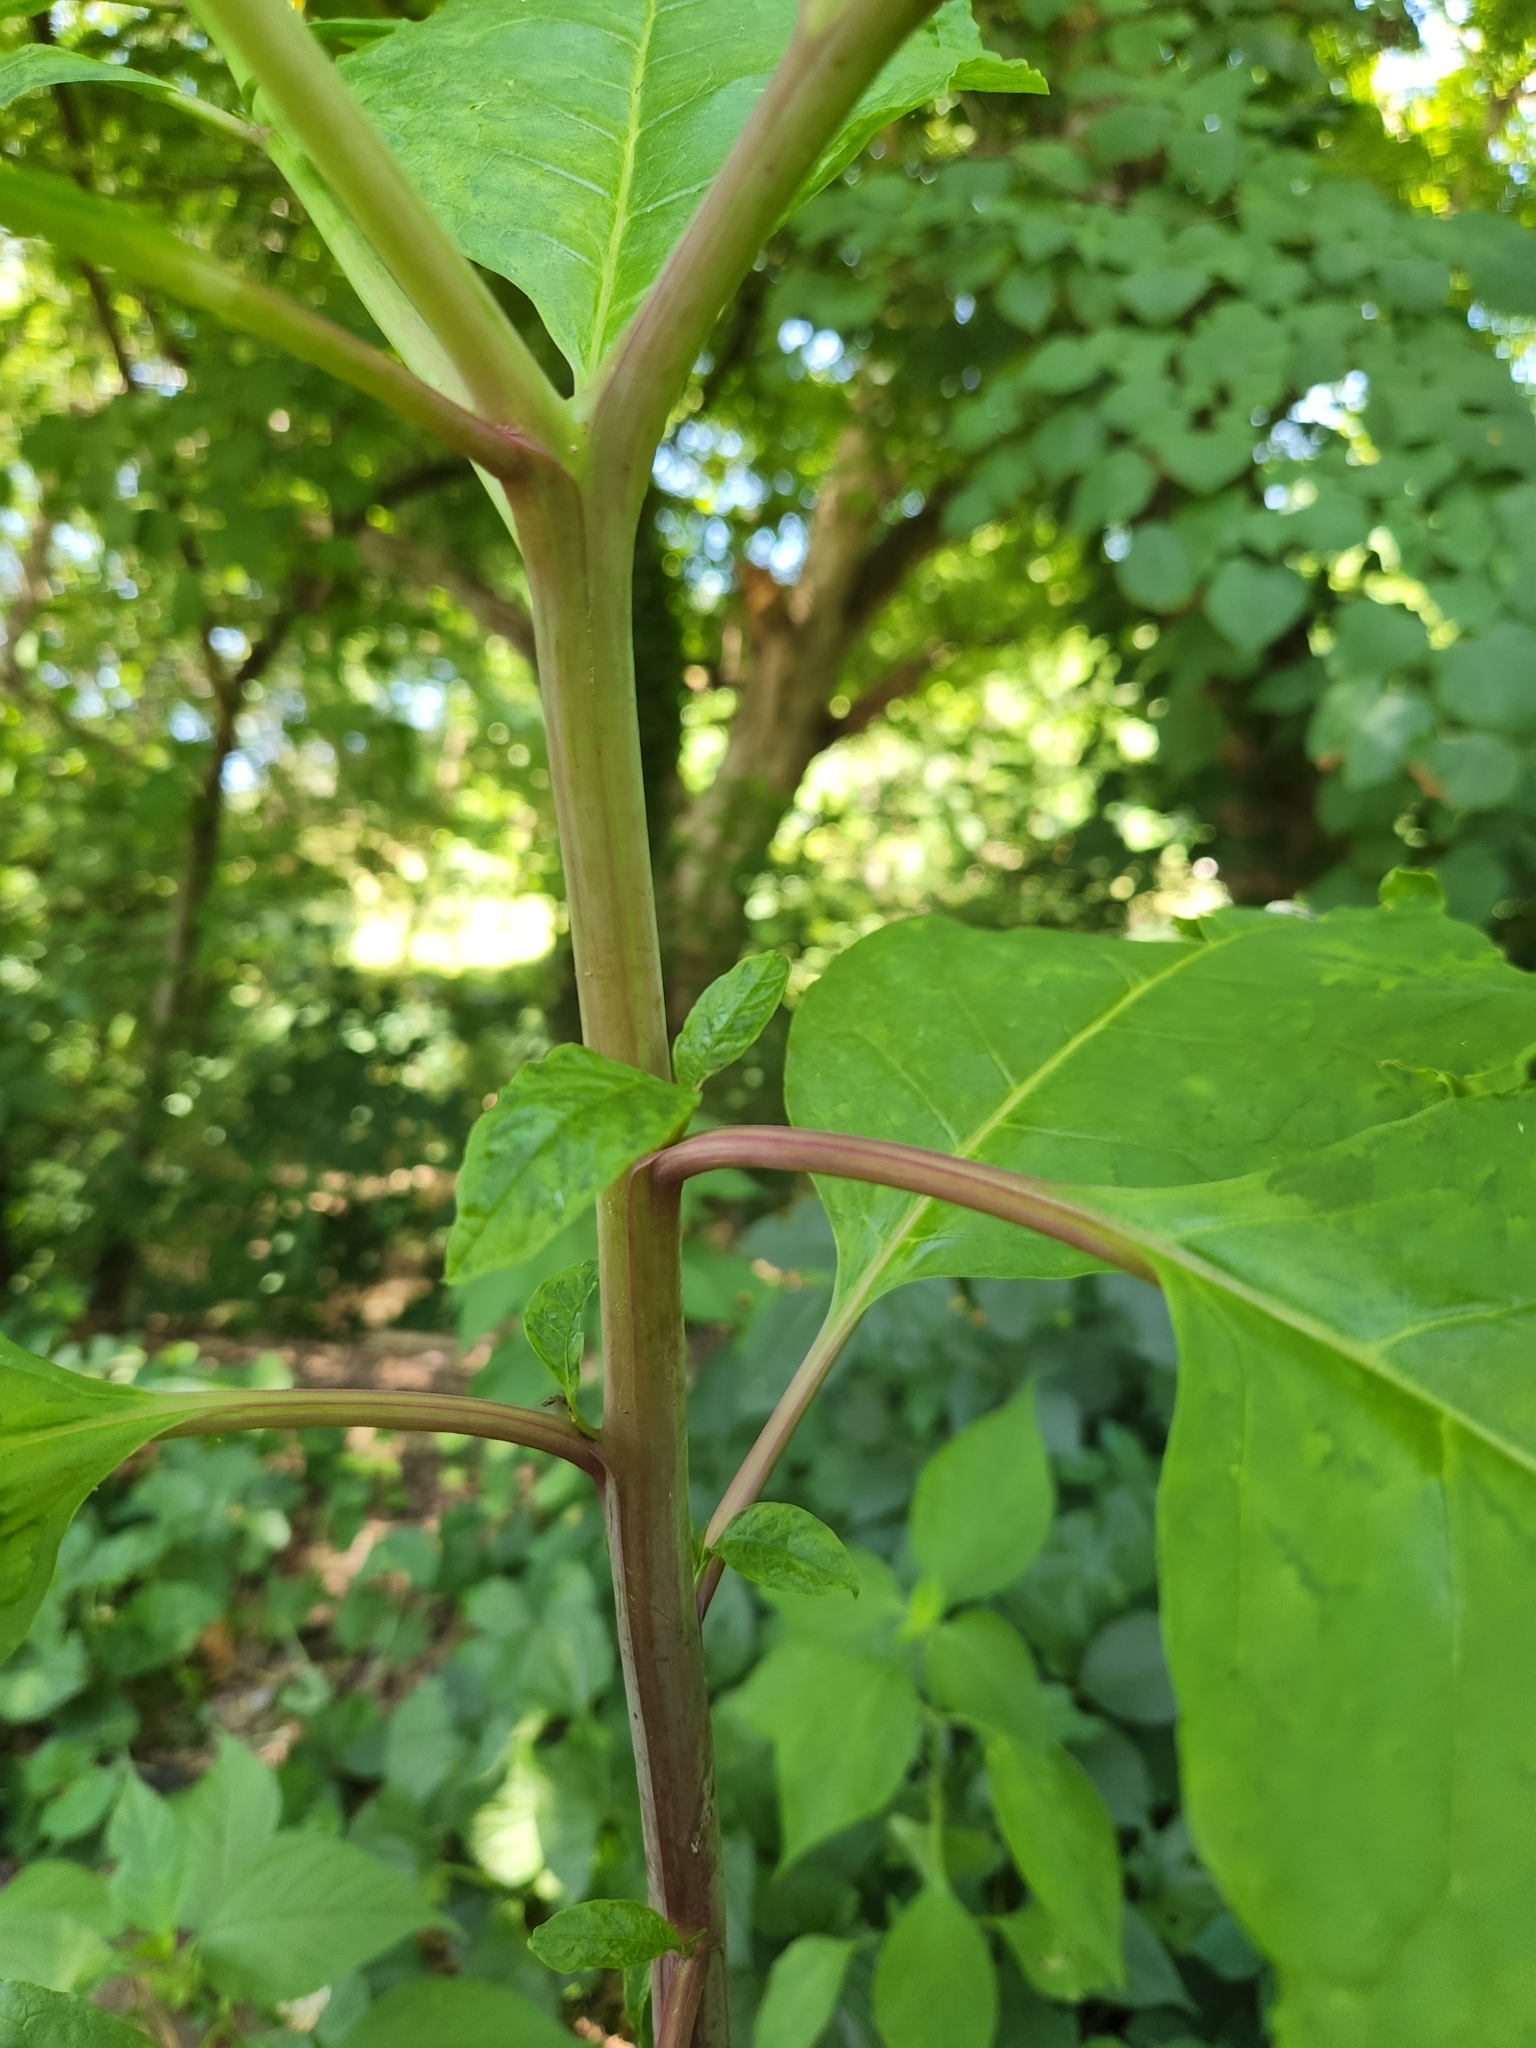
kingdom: Plantae
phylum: Tracheophyta
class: Magnoliopsida
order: Caryophyllales
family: Phytolaccaceae
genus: Phytolacca
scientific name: Phytolacca americana
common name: American pokeweed
